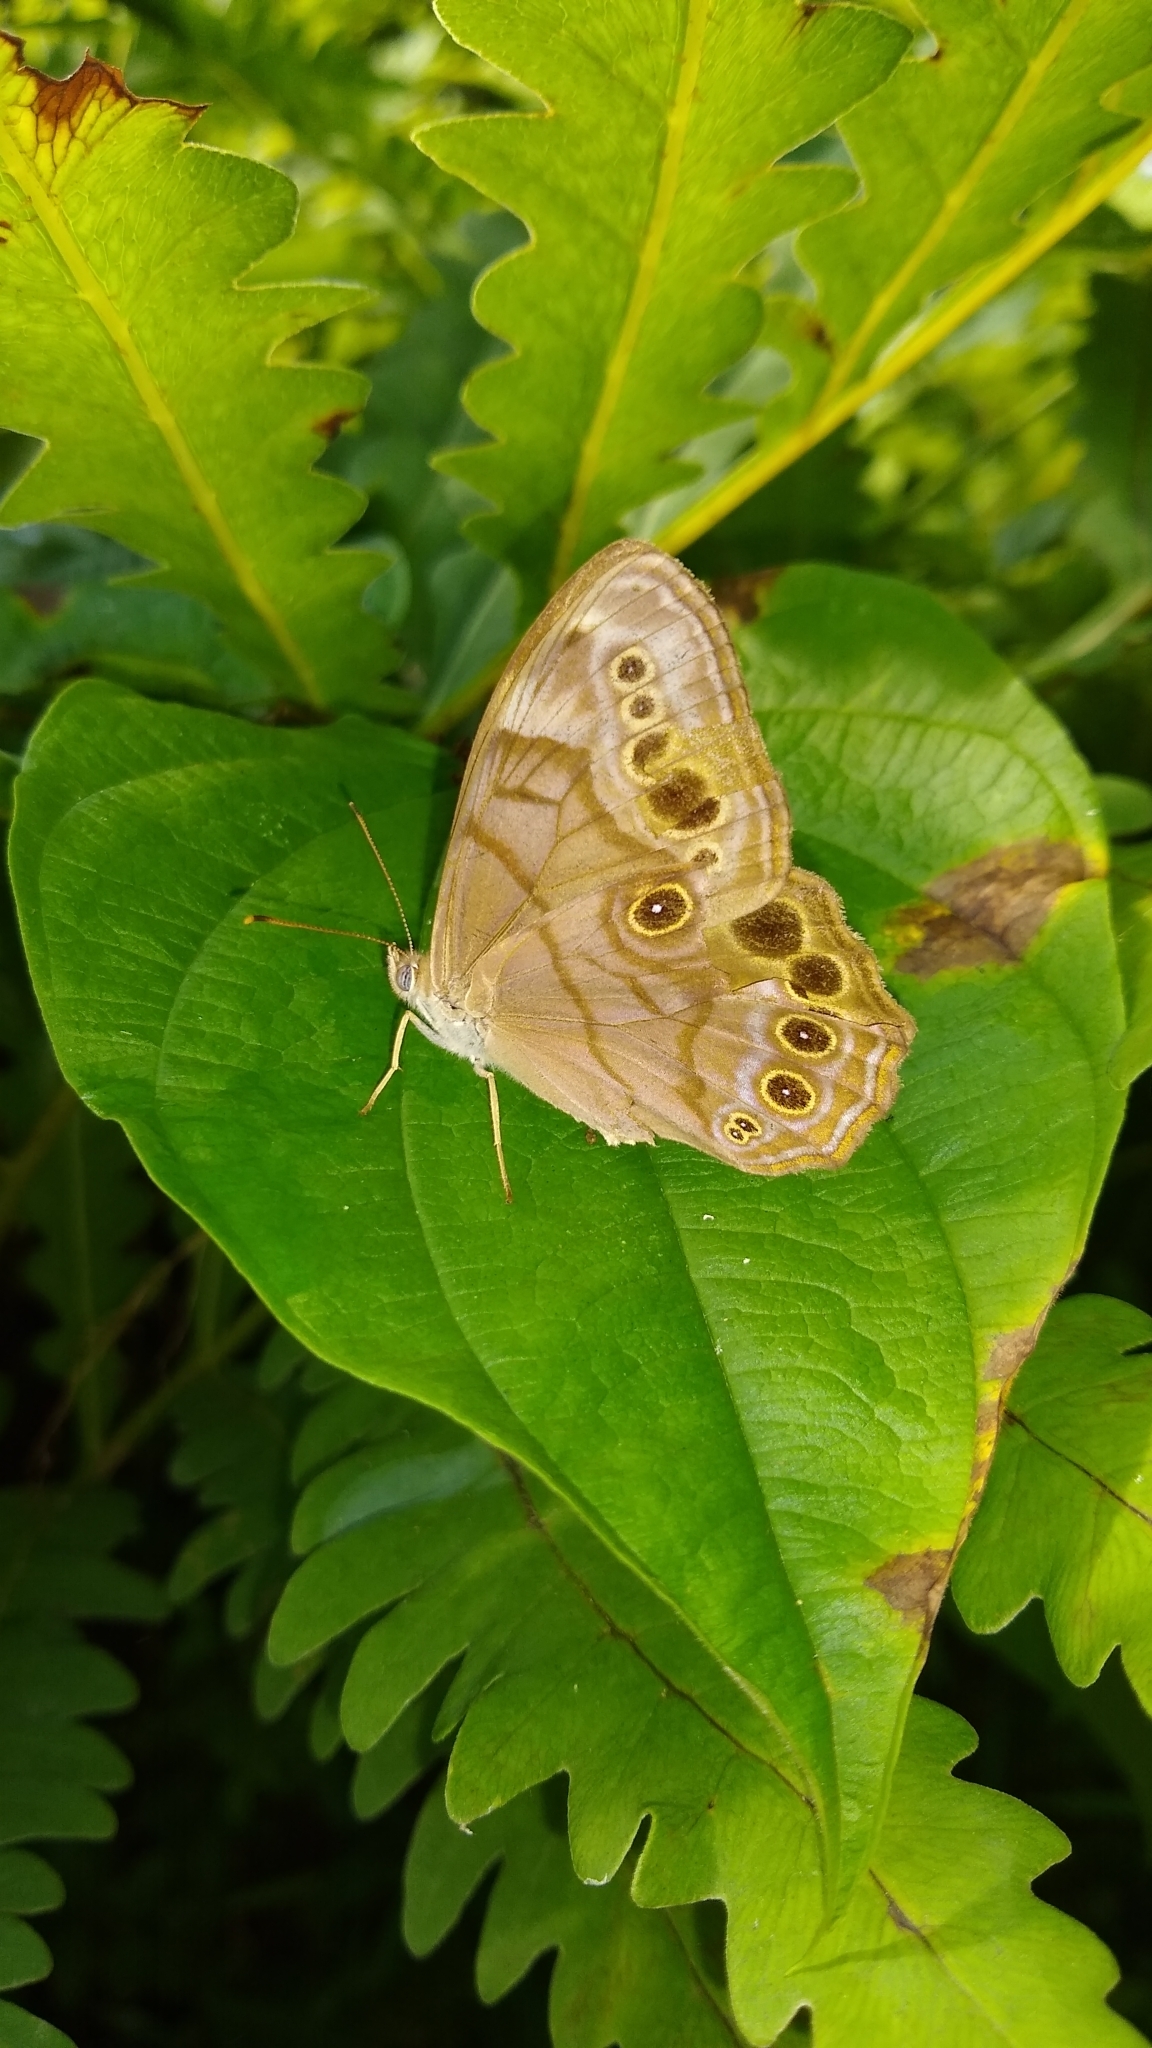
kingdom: Animalia
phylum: Arthropoda
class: Insecta
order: Lepidoptera
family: Nymphalidae
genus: Lethe
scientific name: Lethe anthedon
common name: Northern pearly-eye
